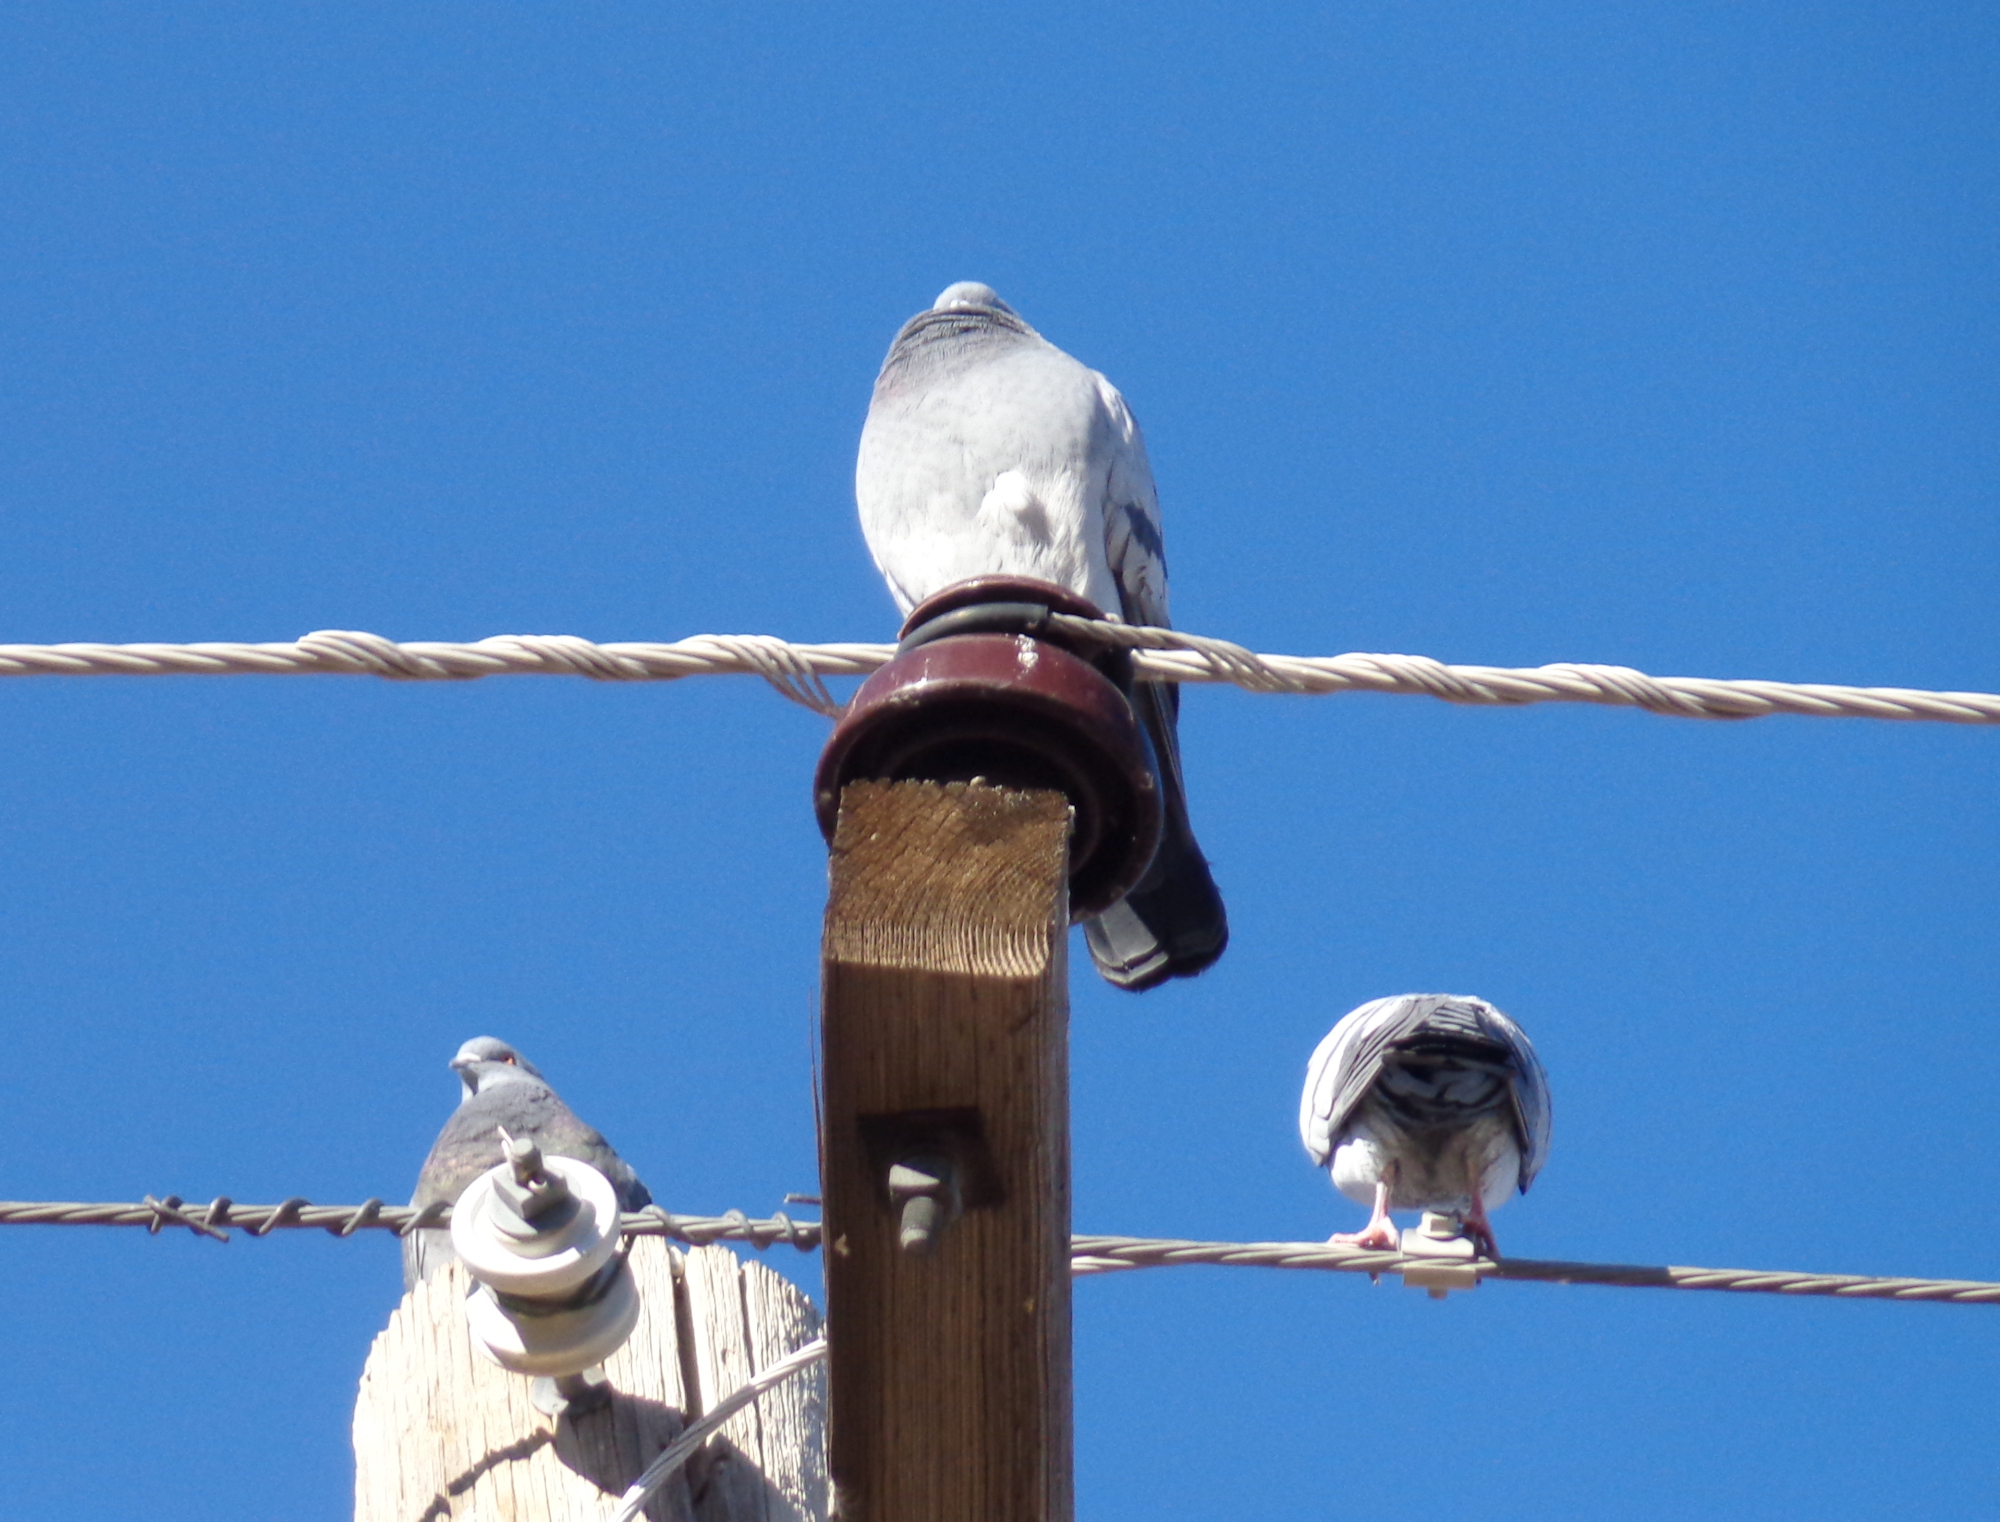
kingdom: Animalia
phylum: Chordata
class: Aves
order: Columbiformes
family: Columbidae
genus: Columba
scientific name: Columba livia
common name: Rock pigeon
